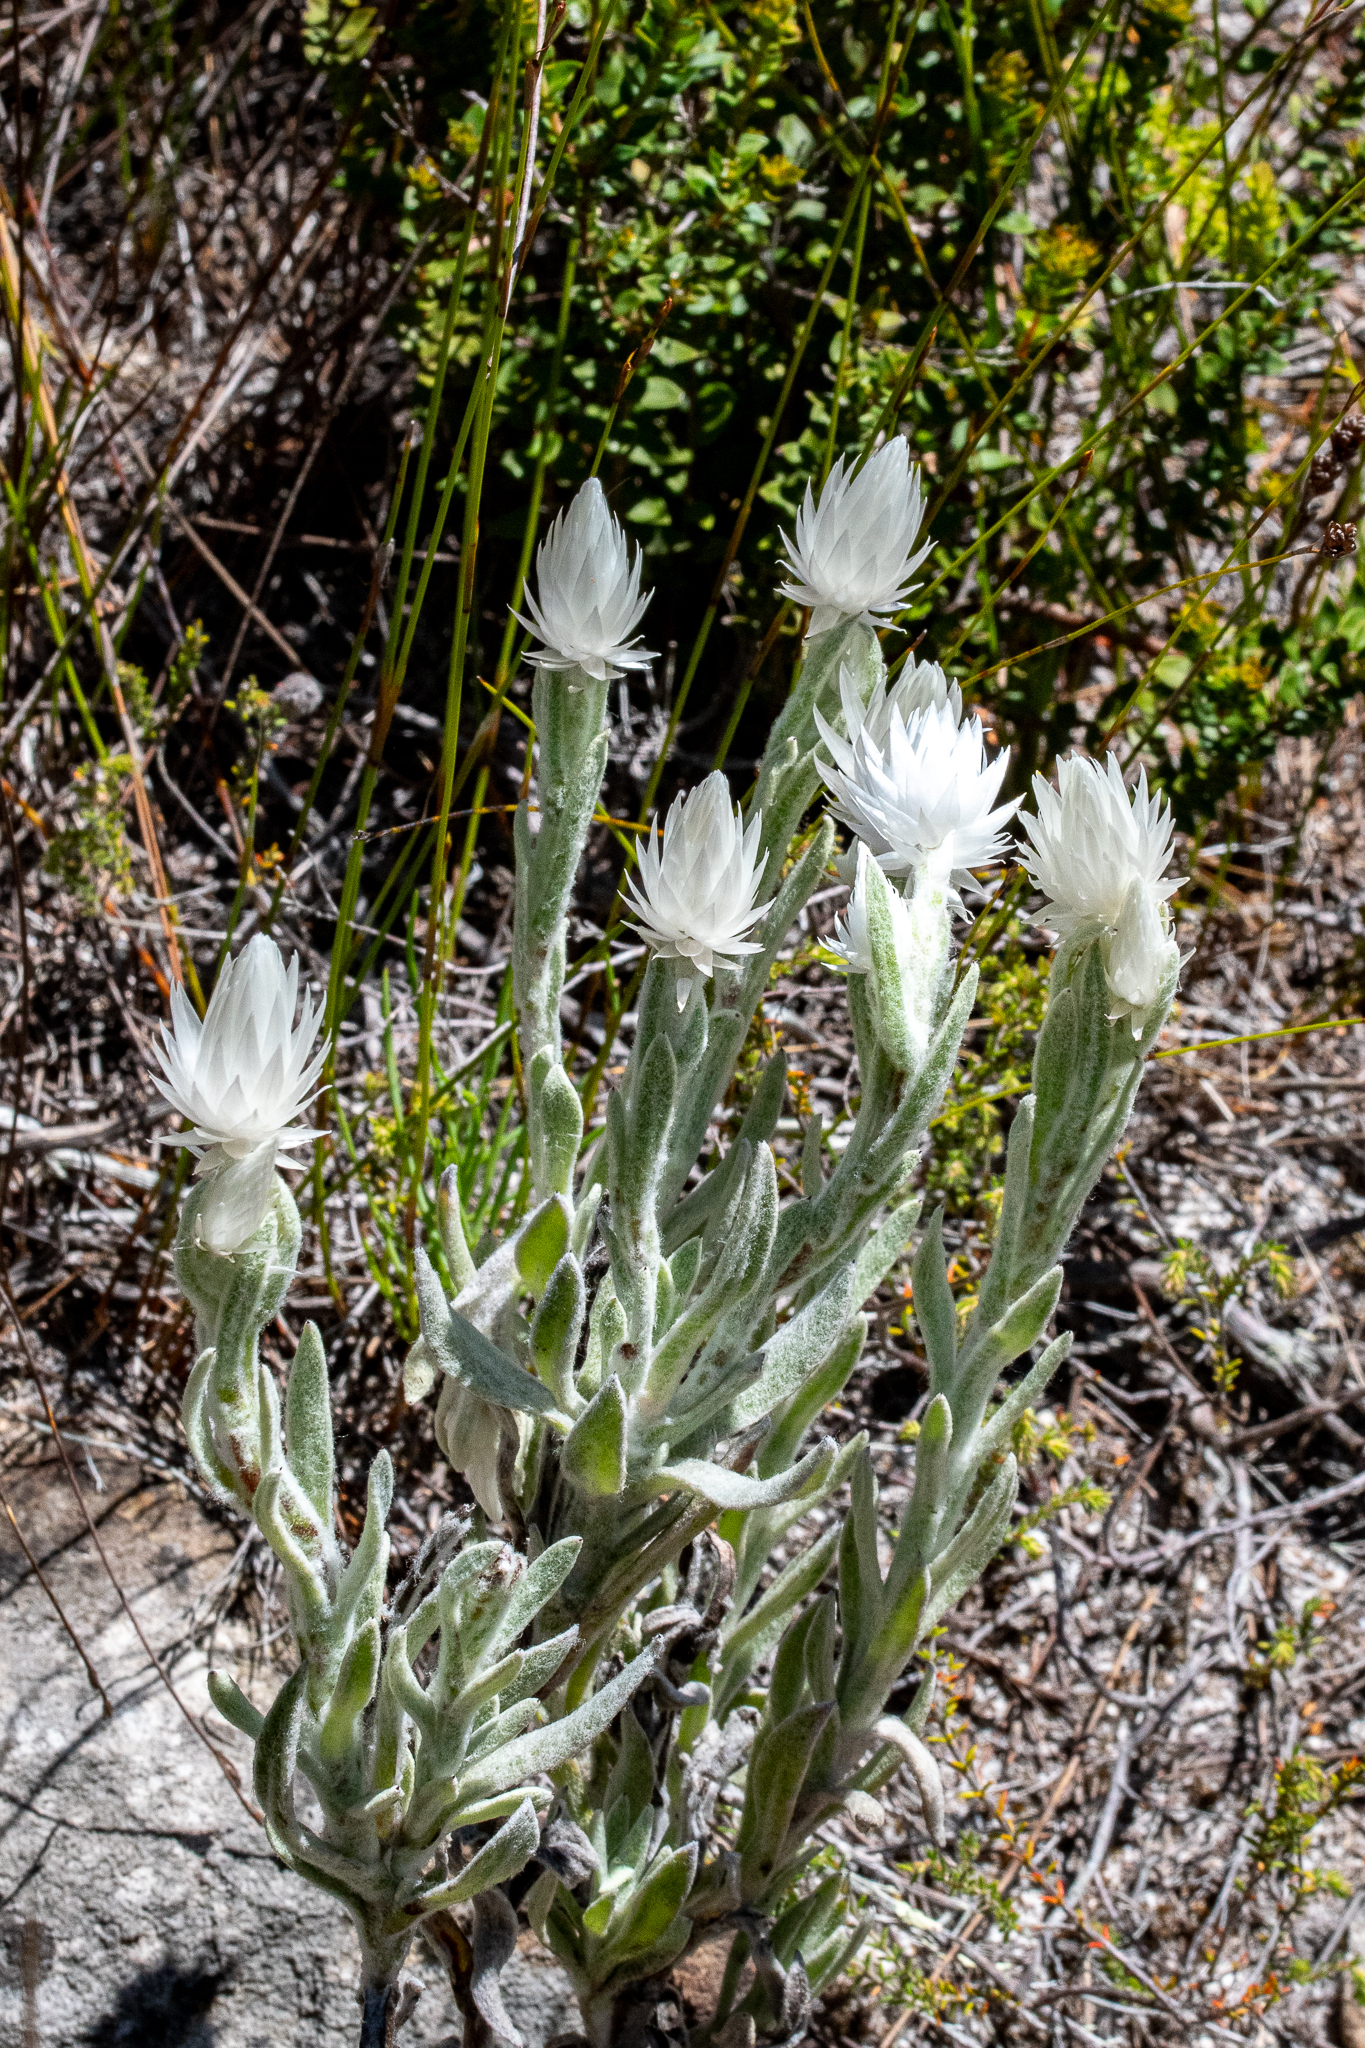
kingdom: Plantae
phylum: Tracheophyta
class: Magnoliopsida
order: Asterales
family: Asteraceae
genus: Syncarpha
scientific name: Syncarpha vestita
